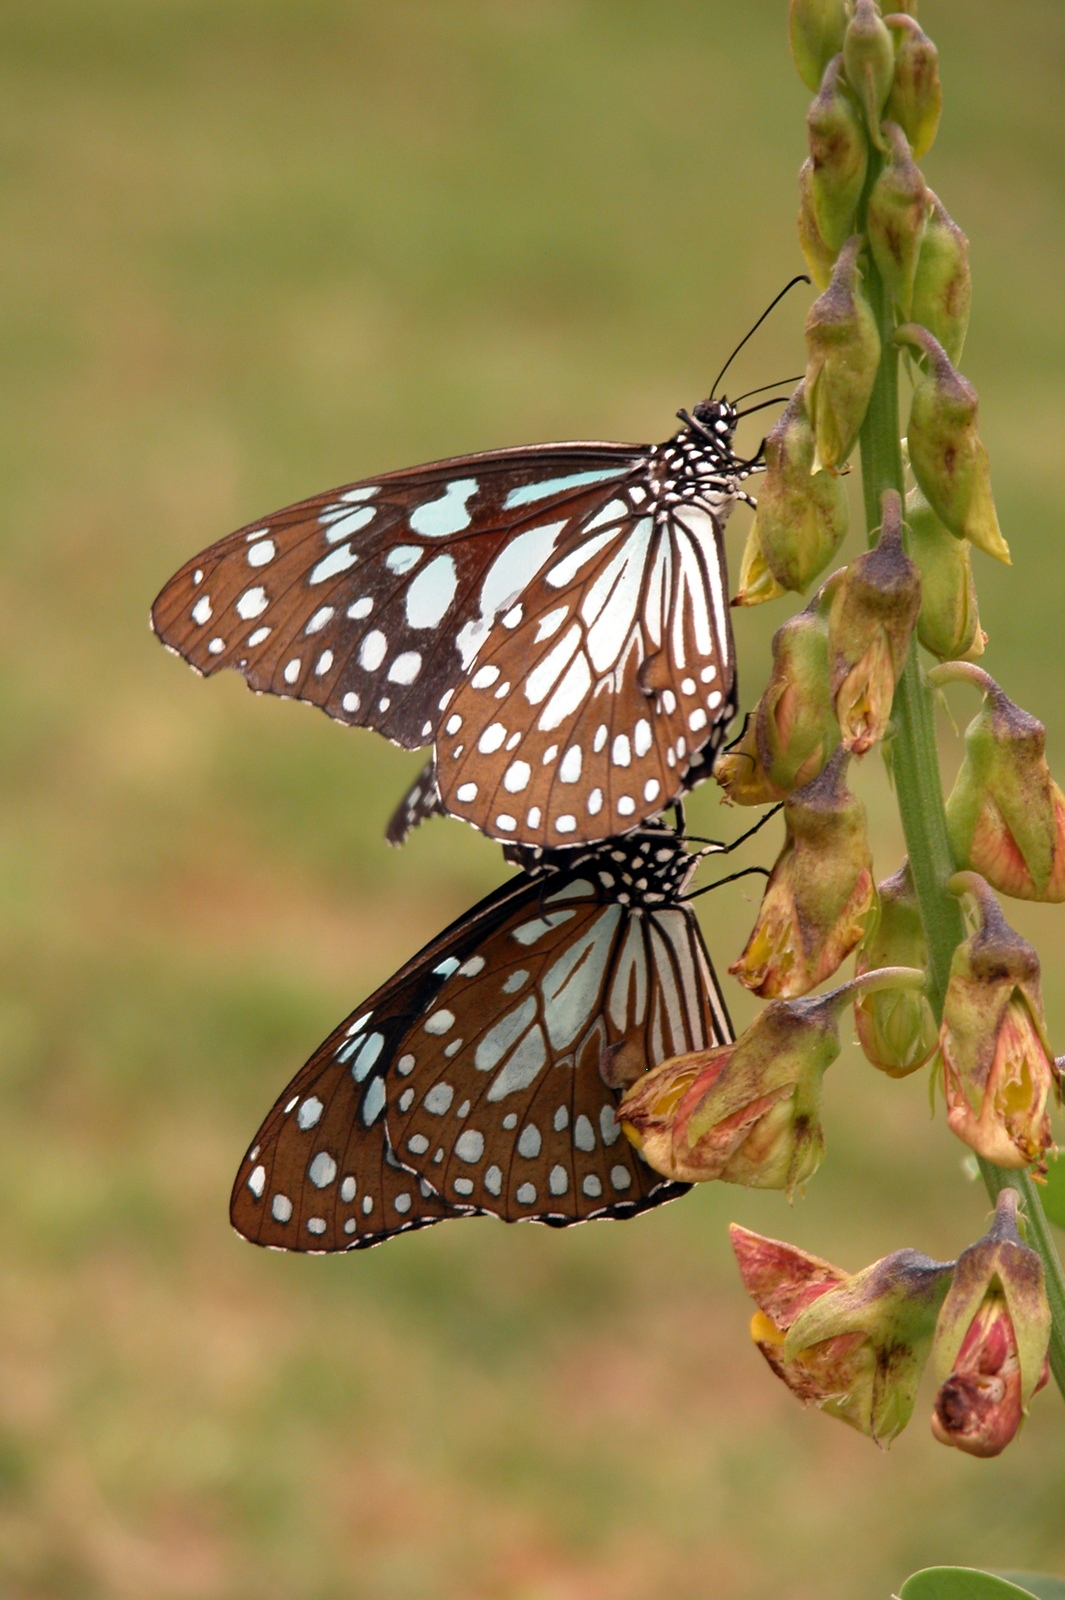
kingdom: Animalia
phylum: Arthropoda
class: Insecta
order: Lepidoptera
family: Nymphalidae
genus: Tirumala
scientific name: Tirumala limniace
